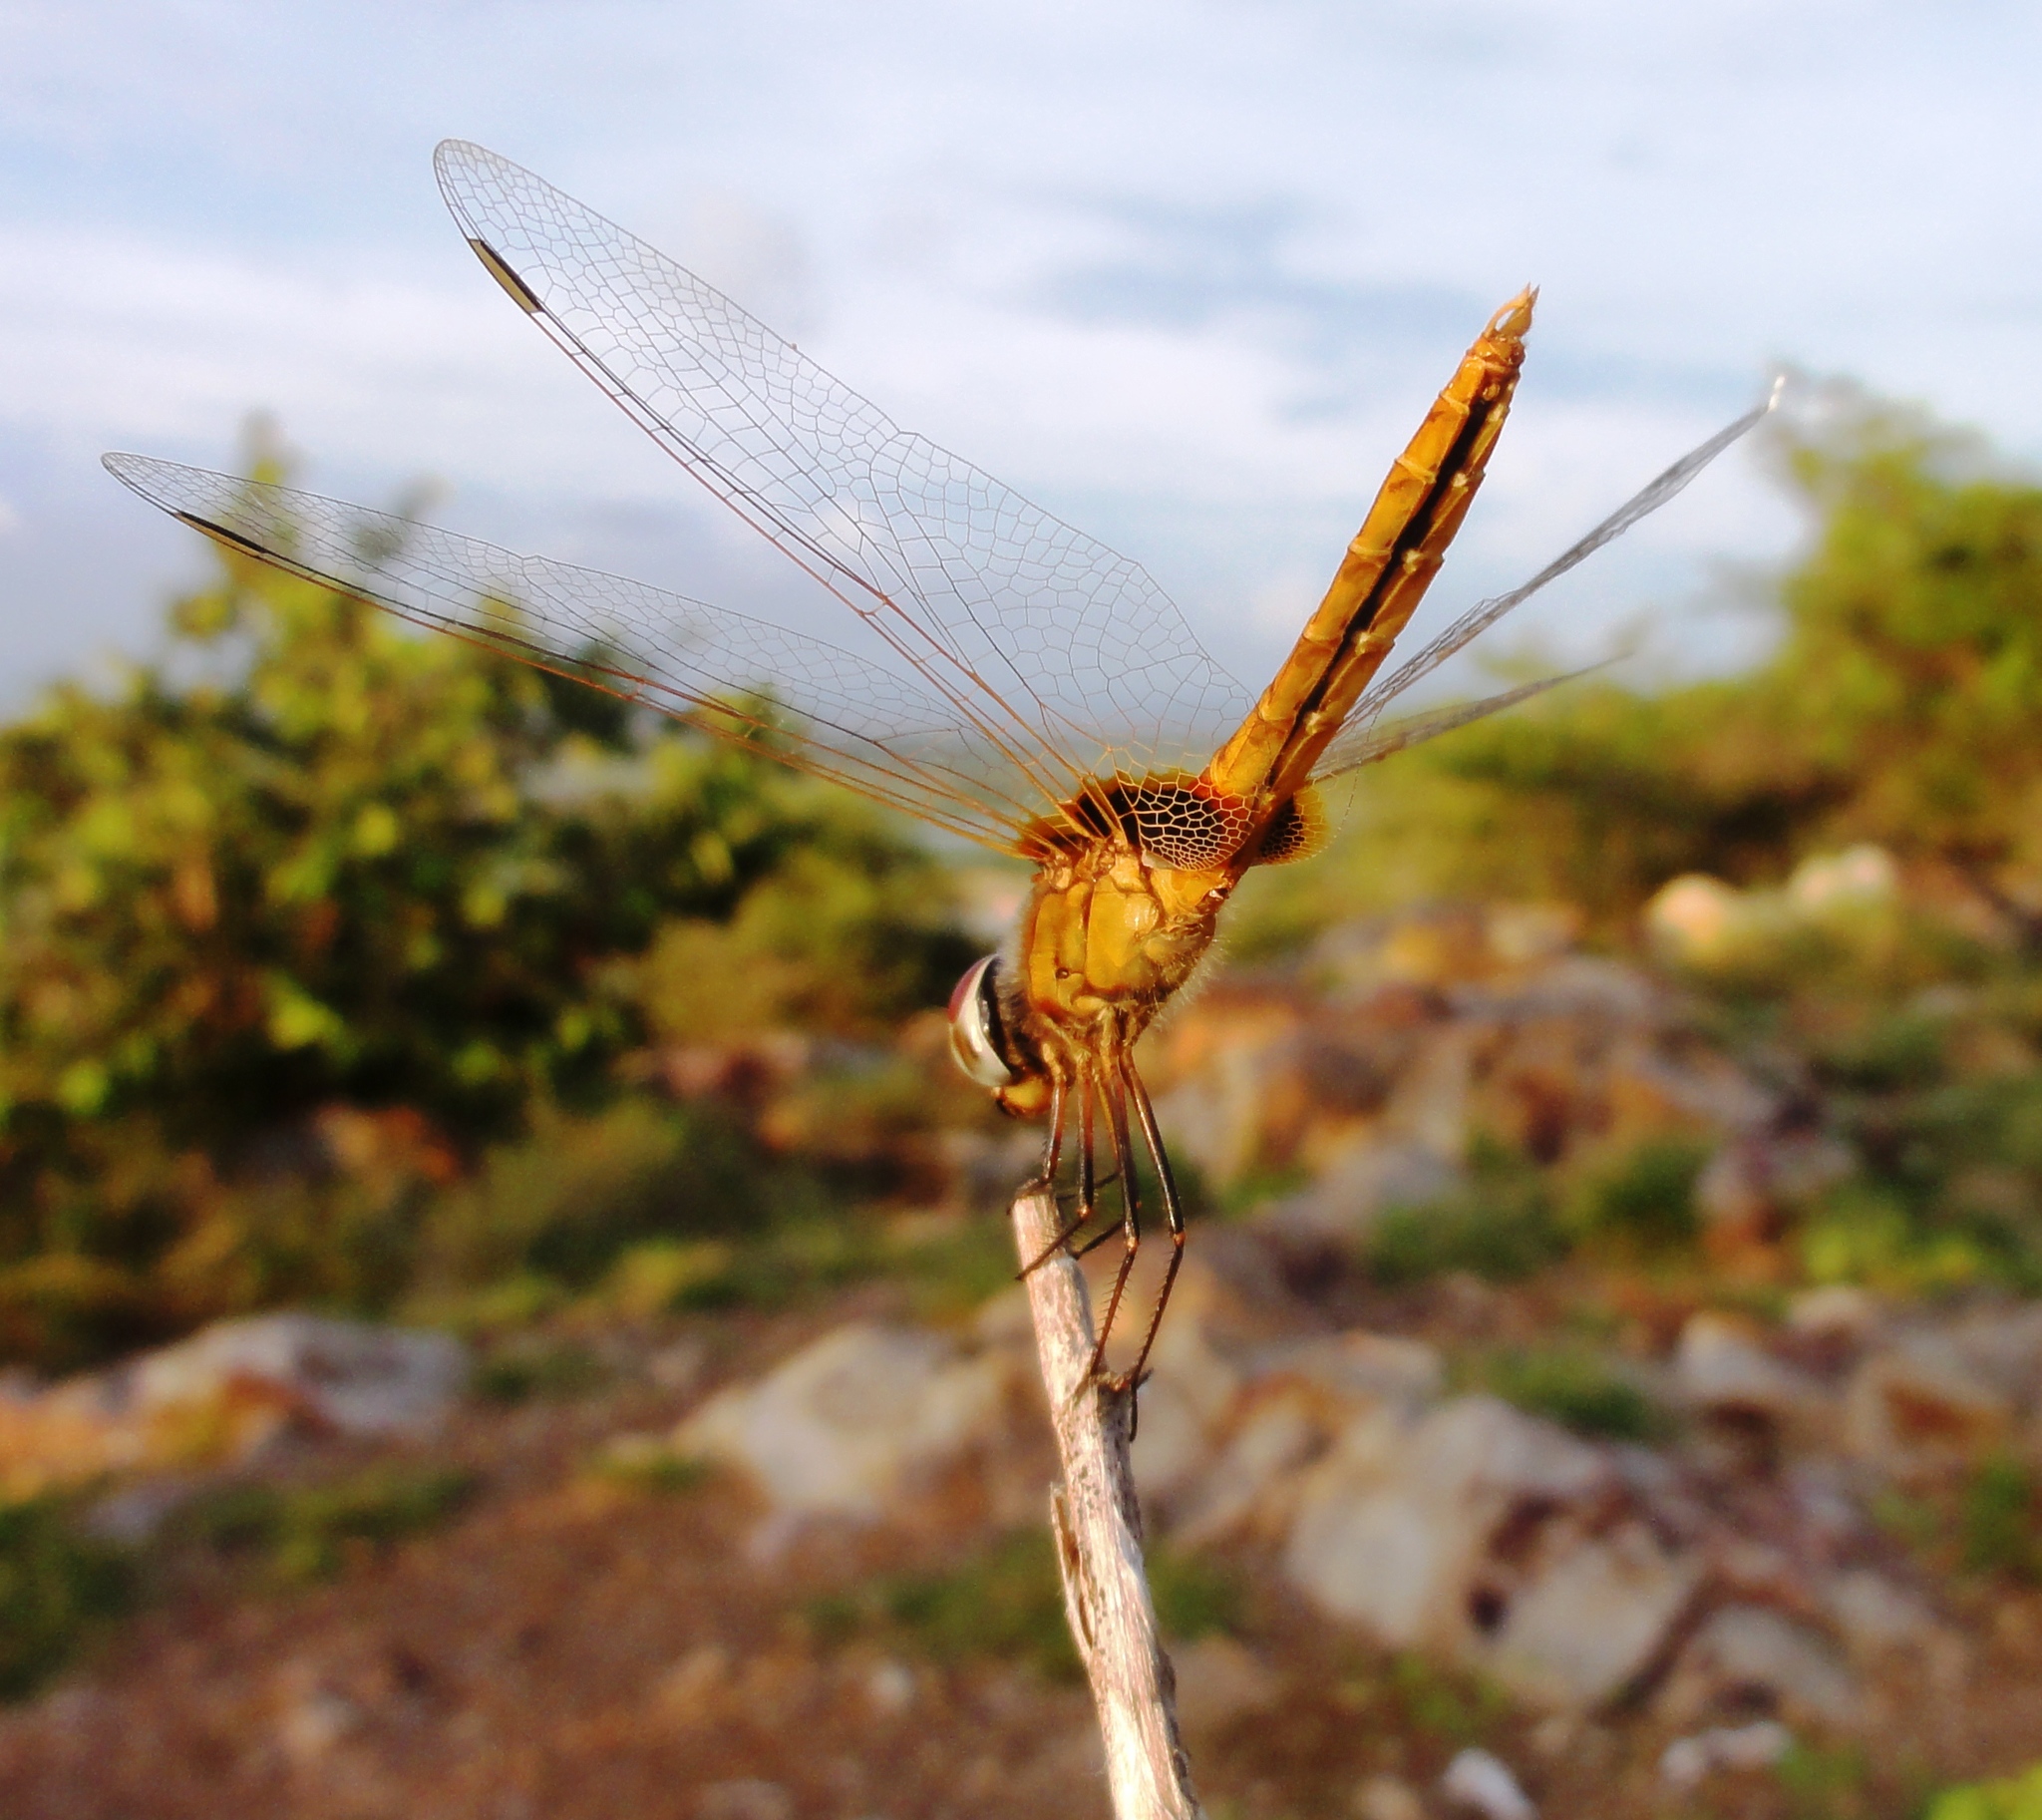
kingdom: Animalia
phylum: Arthropoda
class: Insecta
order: Odonata
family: Libellulidae
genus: Aethriamanta
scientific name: Aethriamanta brevipennis
